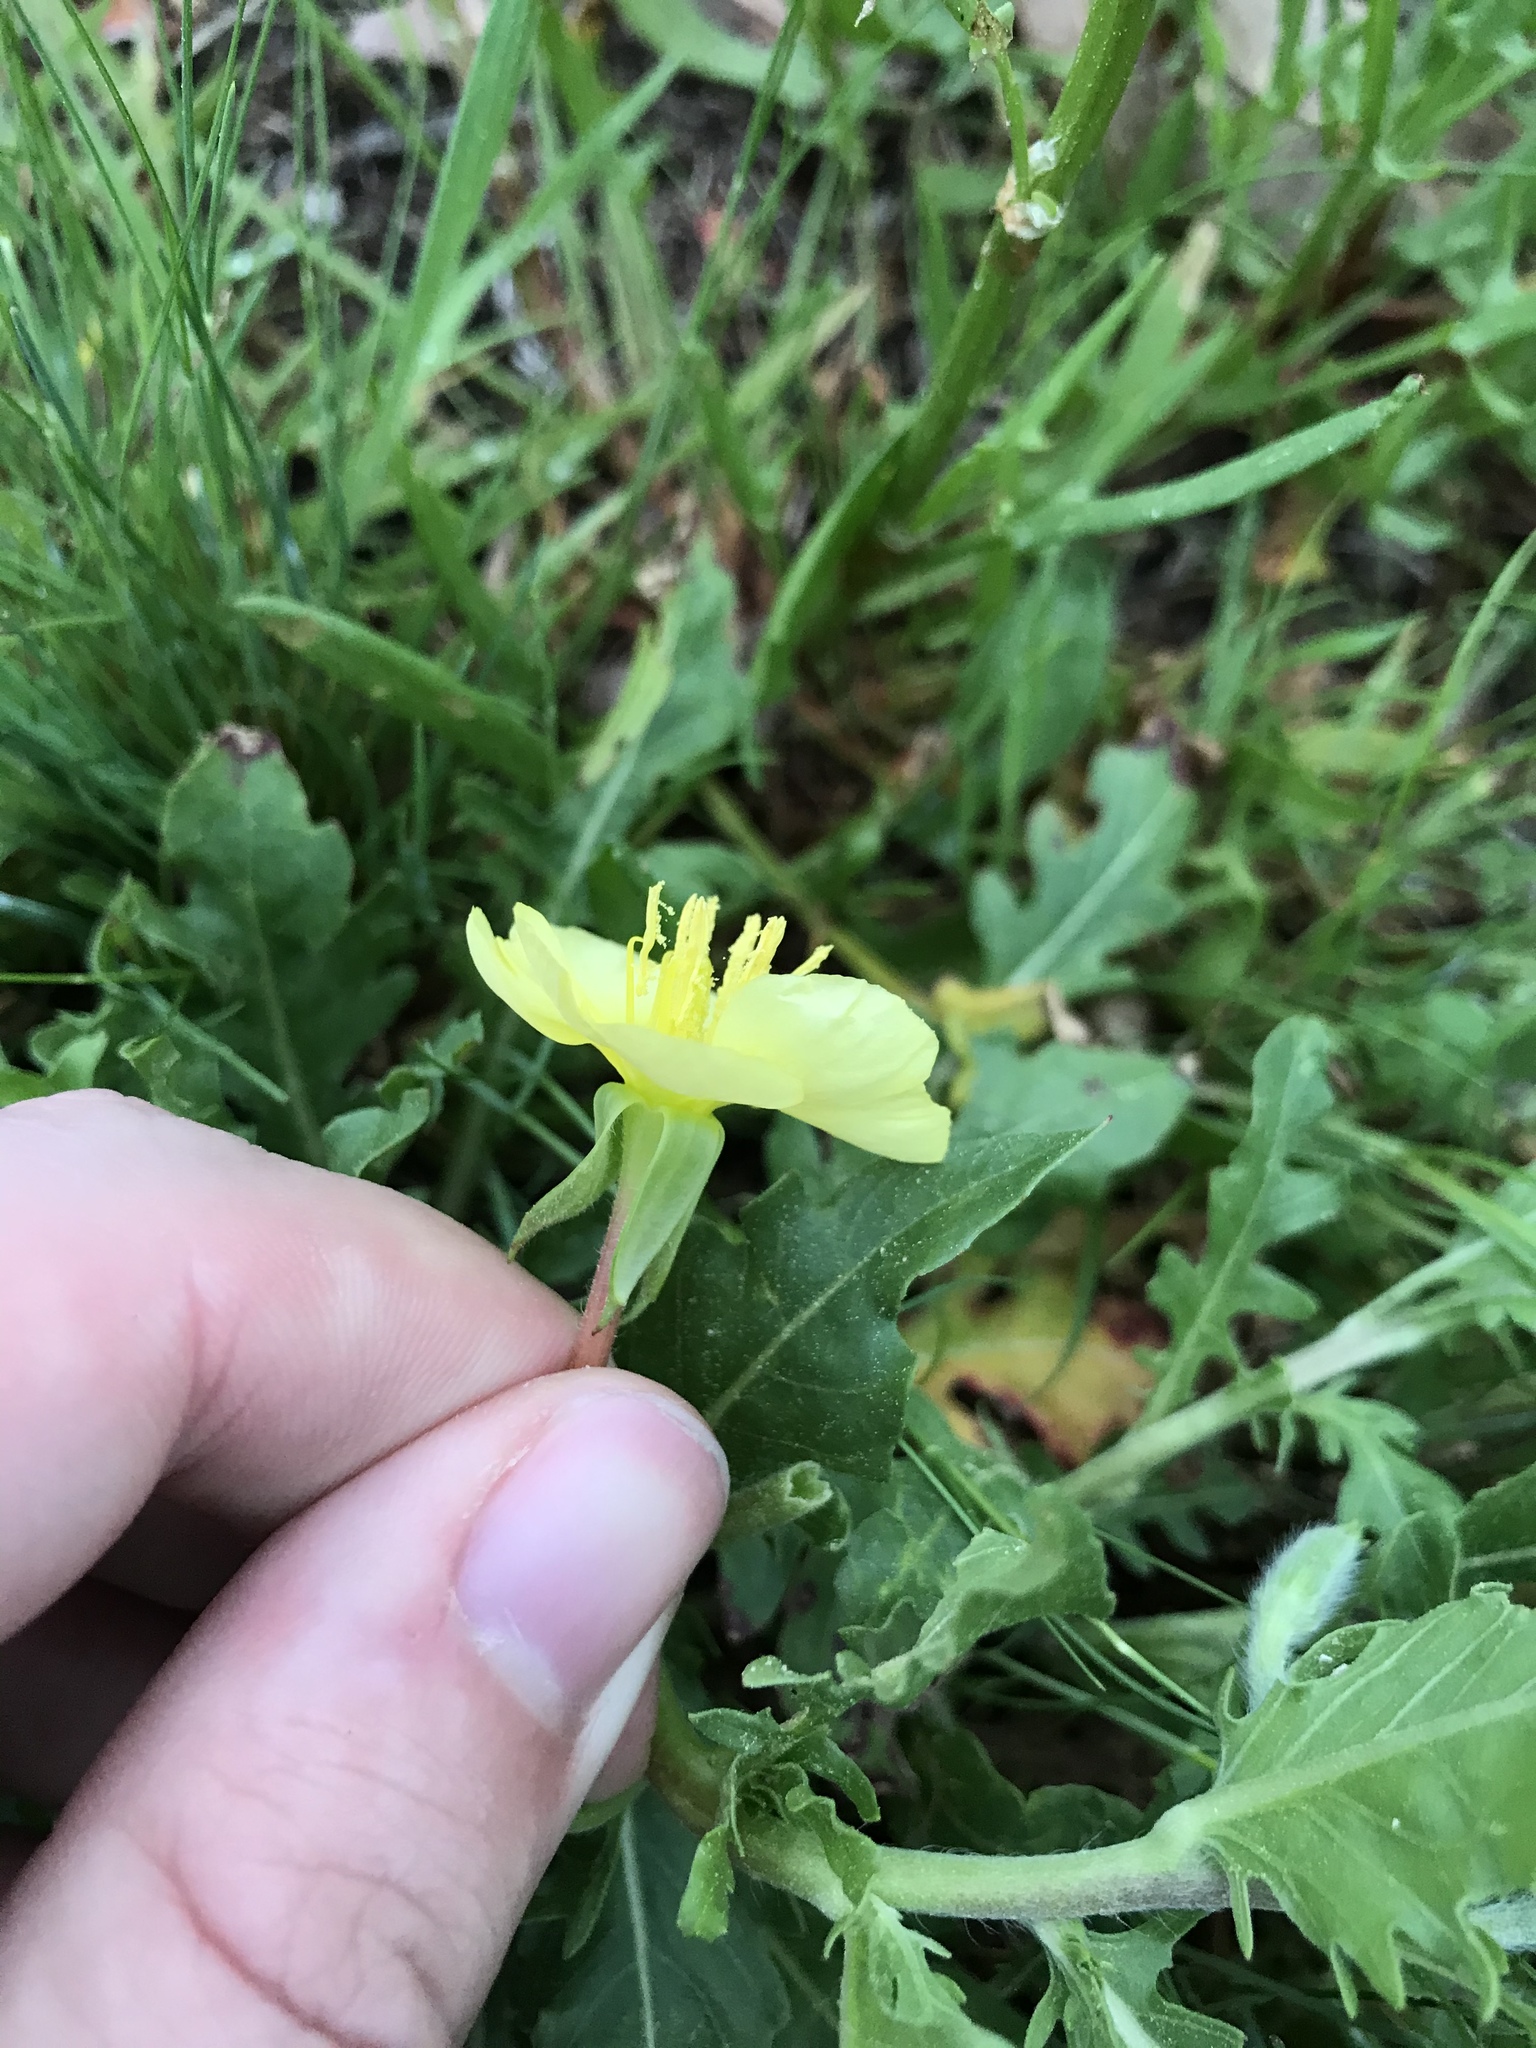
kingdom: Plantae
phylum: Tracheophyta
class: Magnoliopsida
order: Myrtales
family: Onagraceae
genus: Oenothera
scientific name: Oenothera laciniata
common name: Cut-leaved evening-primrose
